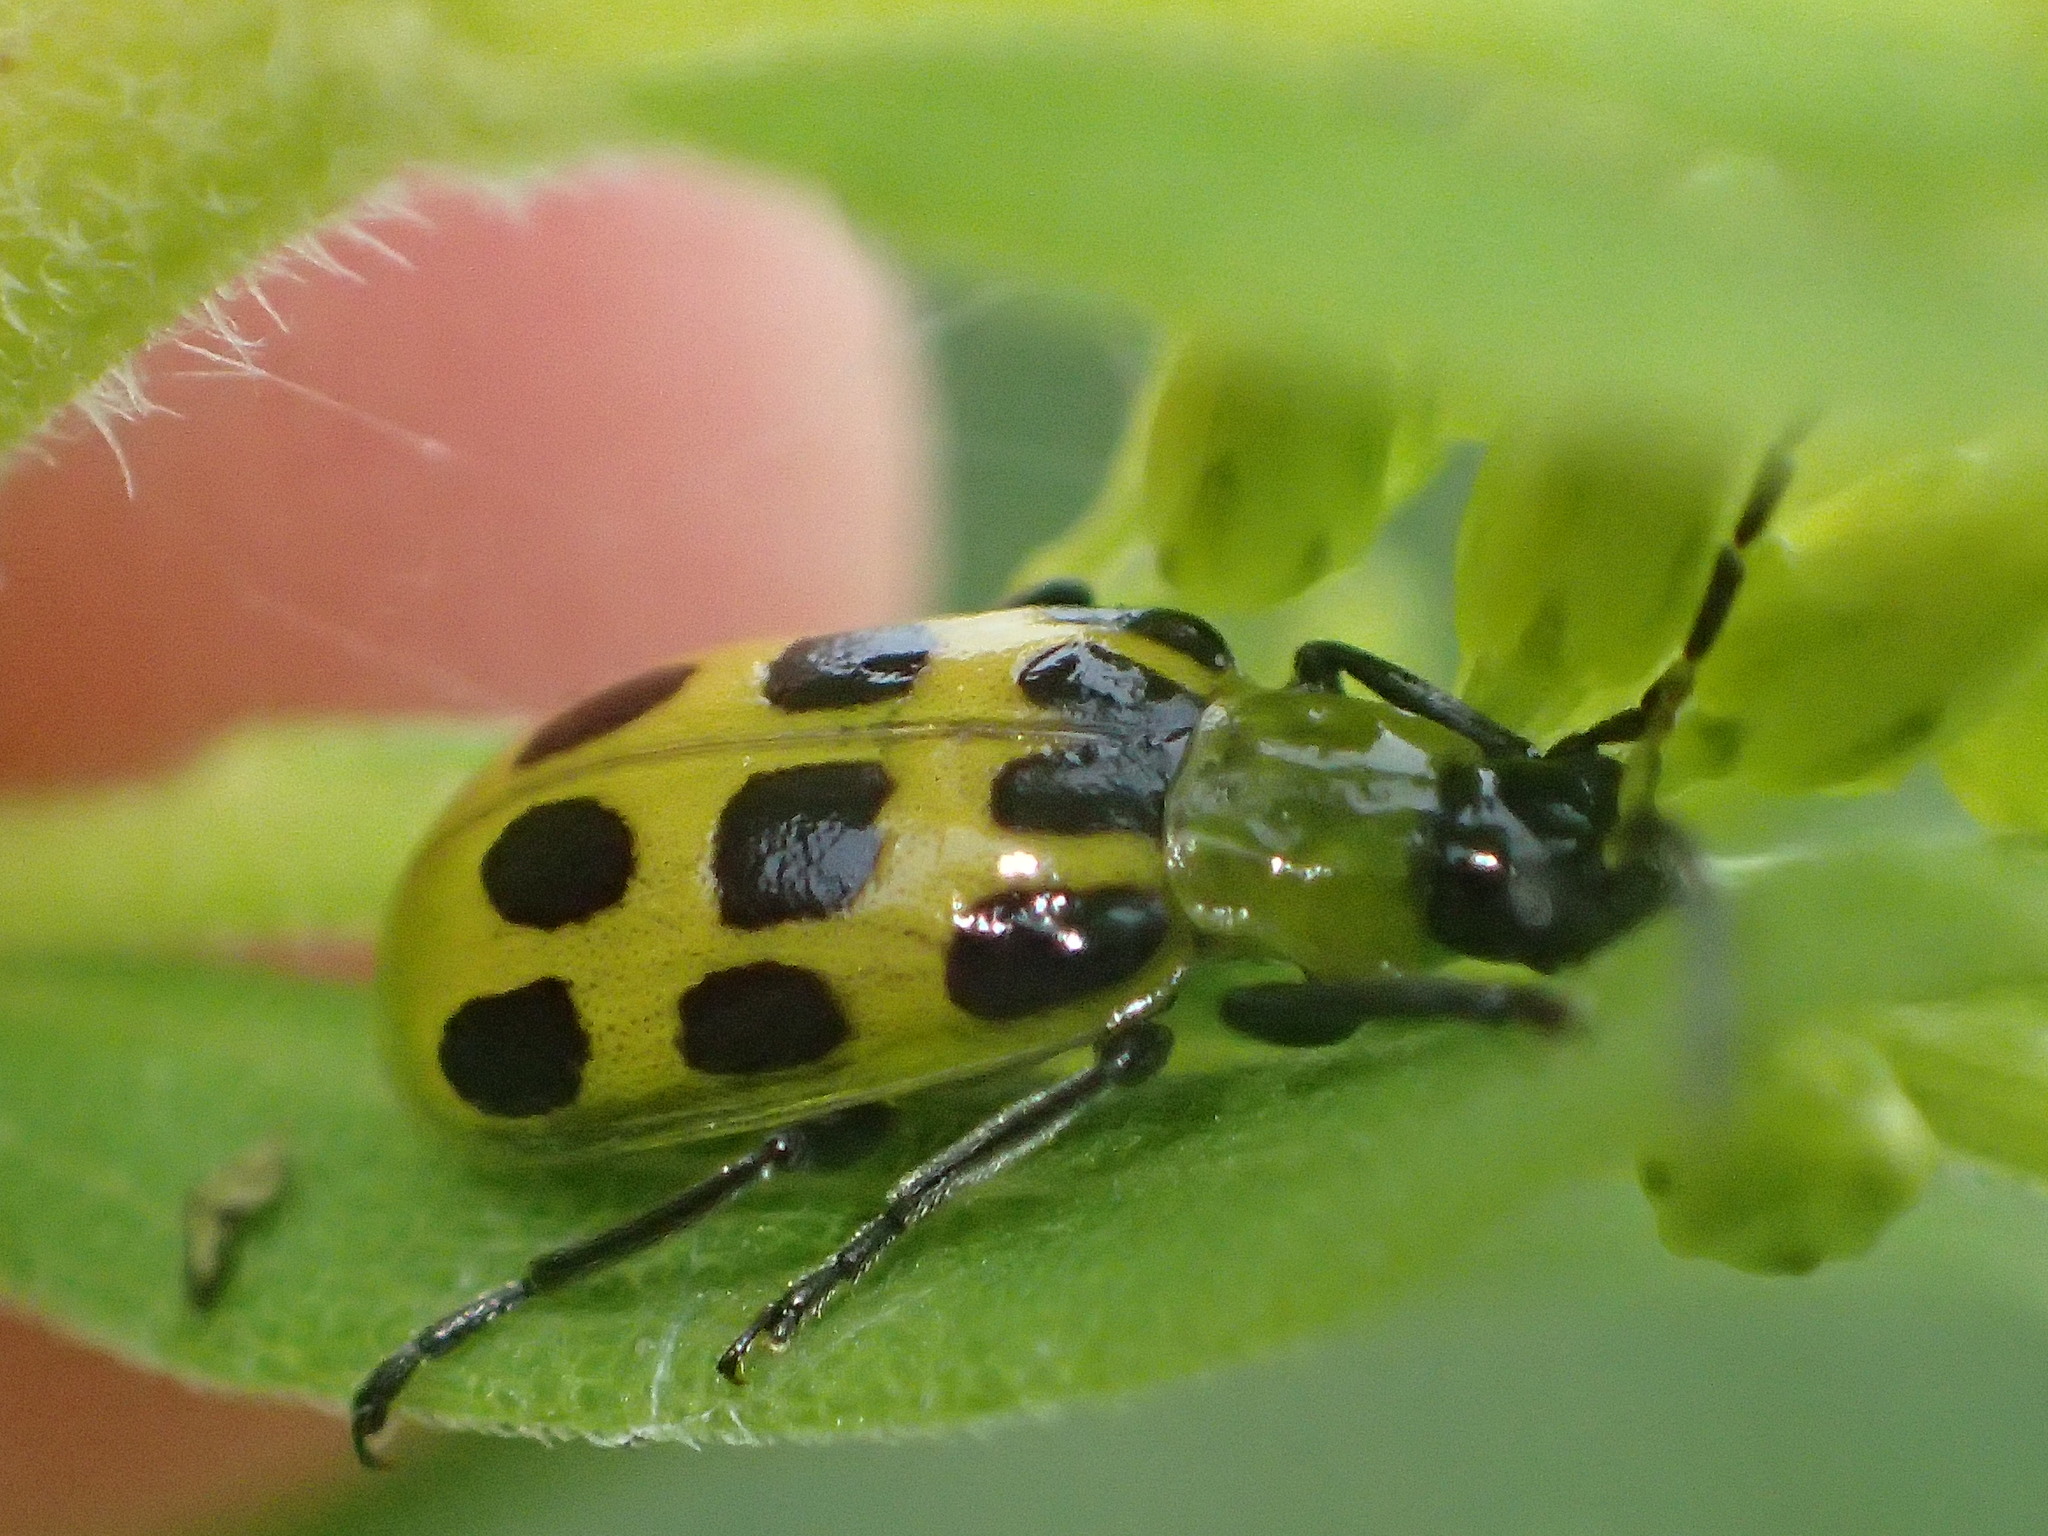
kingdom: Animalia
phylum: Arthropoda
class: Insecta
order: Coleoptera
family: Chrysomelidae
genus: Diabrotica
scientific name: Diabrotica undecimpunctata
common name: Spotted cucumber beetle
